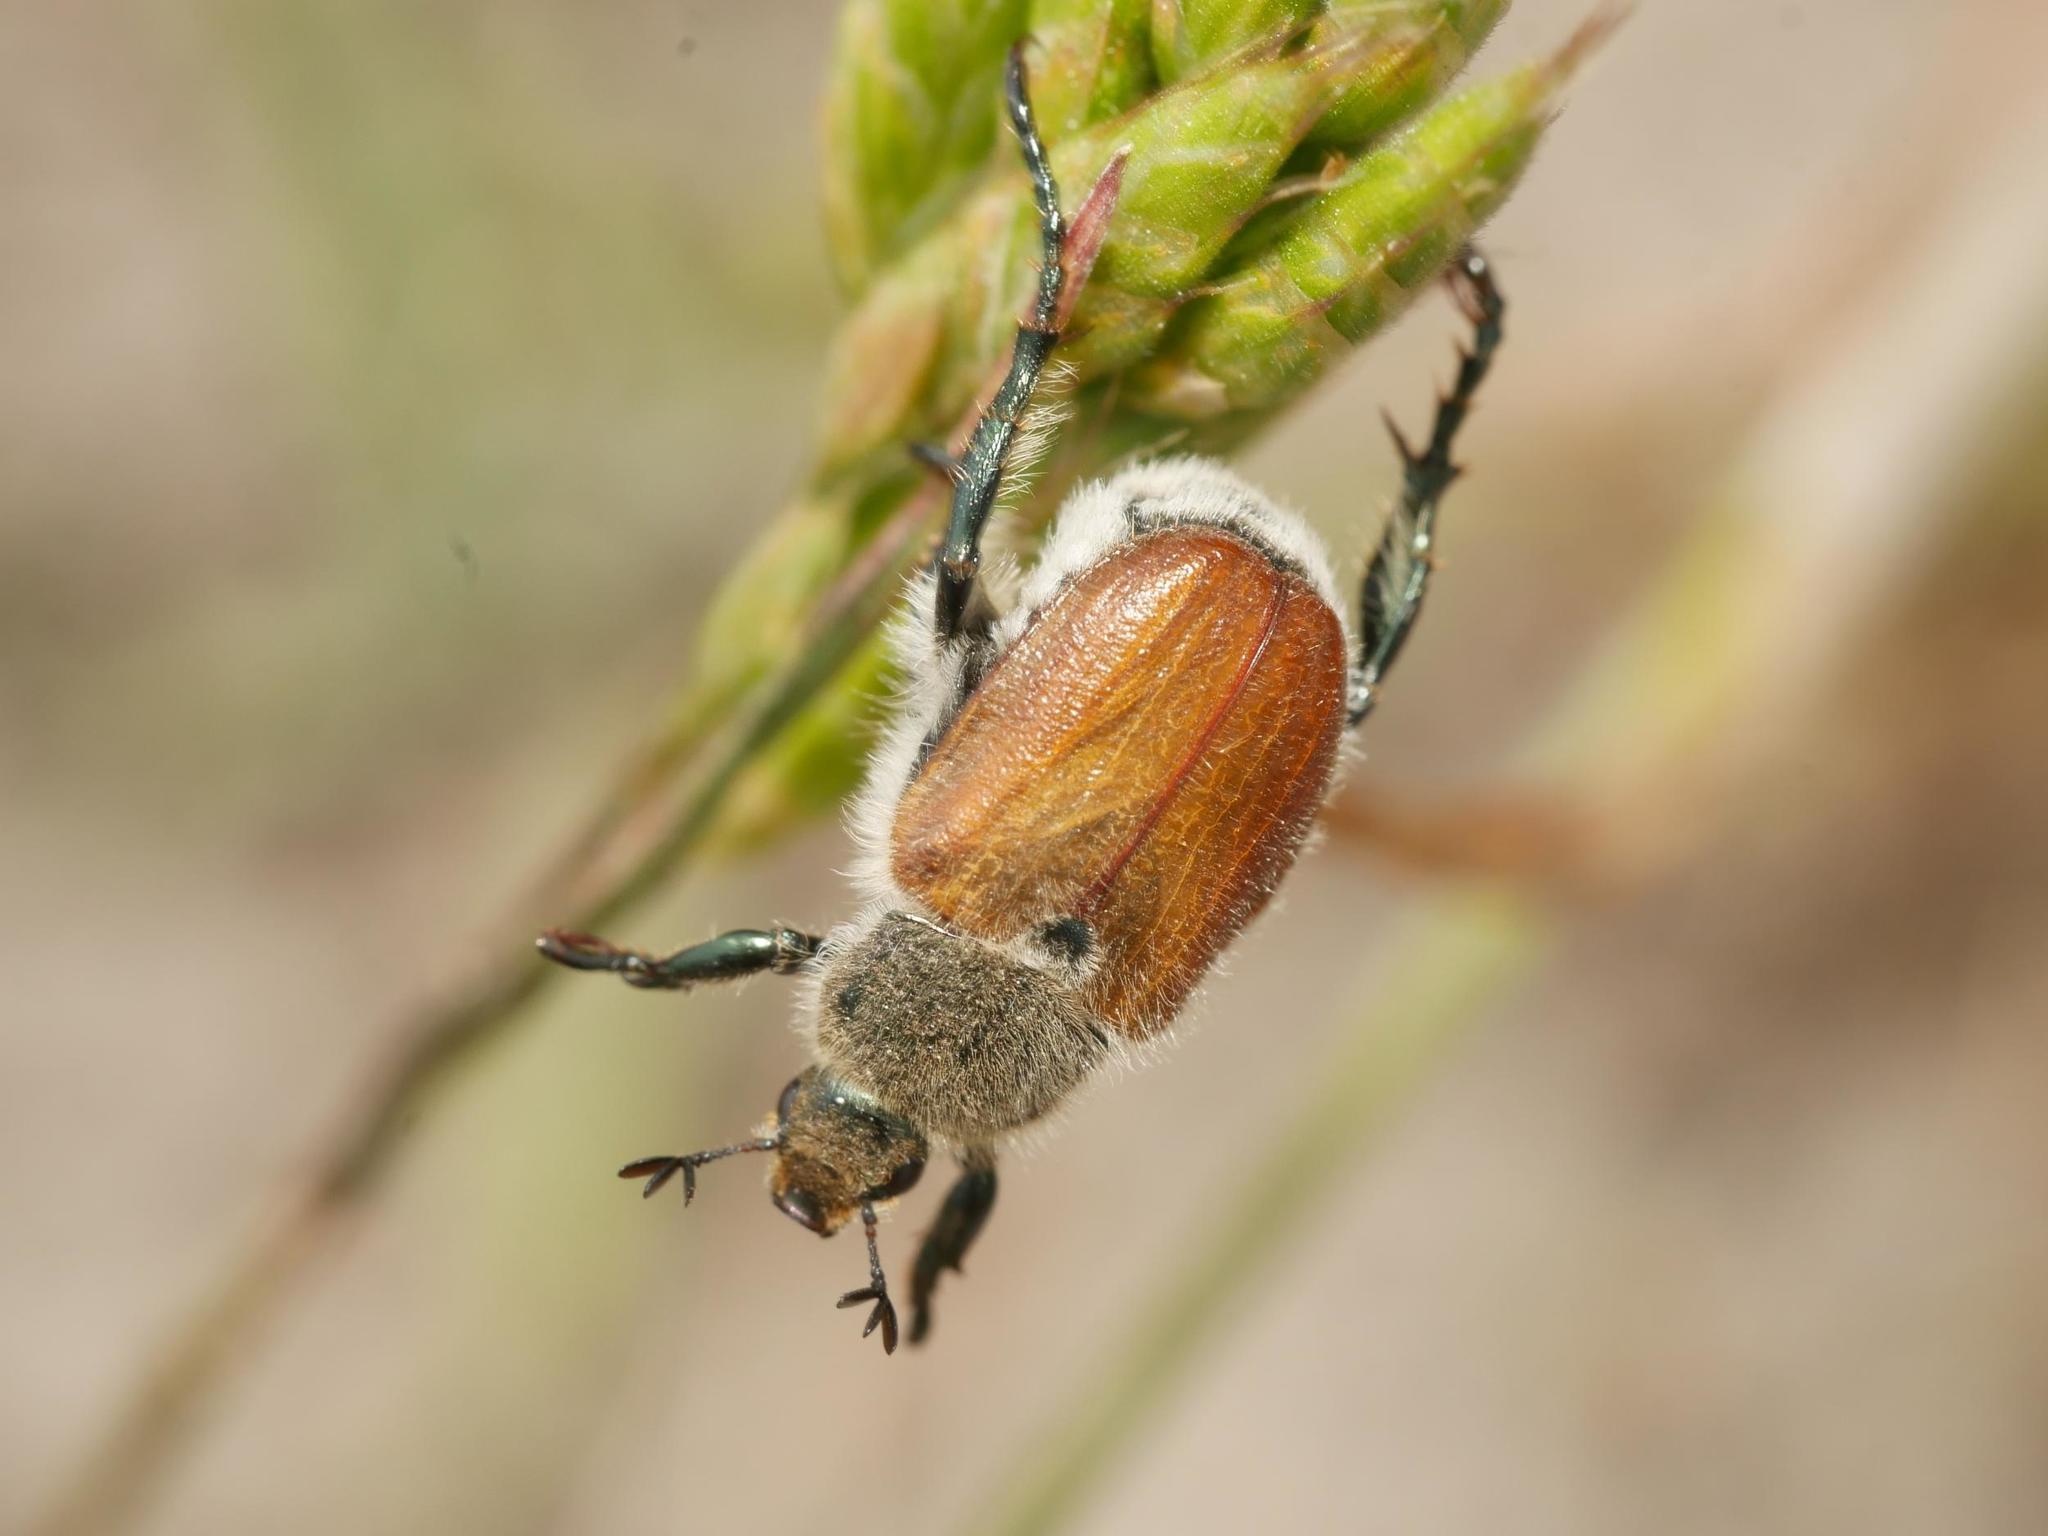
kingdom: Animalia
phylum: Arthropoda
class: Insecta
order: Coleoptera
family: Scarabaeidae
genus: Chaetopteroplia
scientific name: Chaetopteroplia segetum
